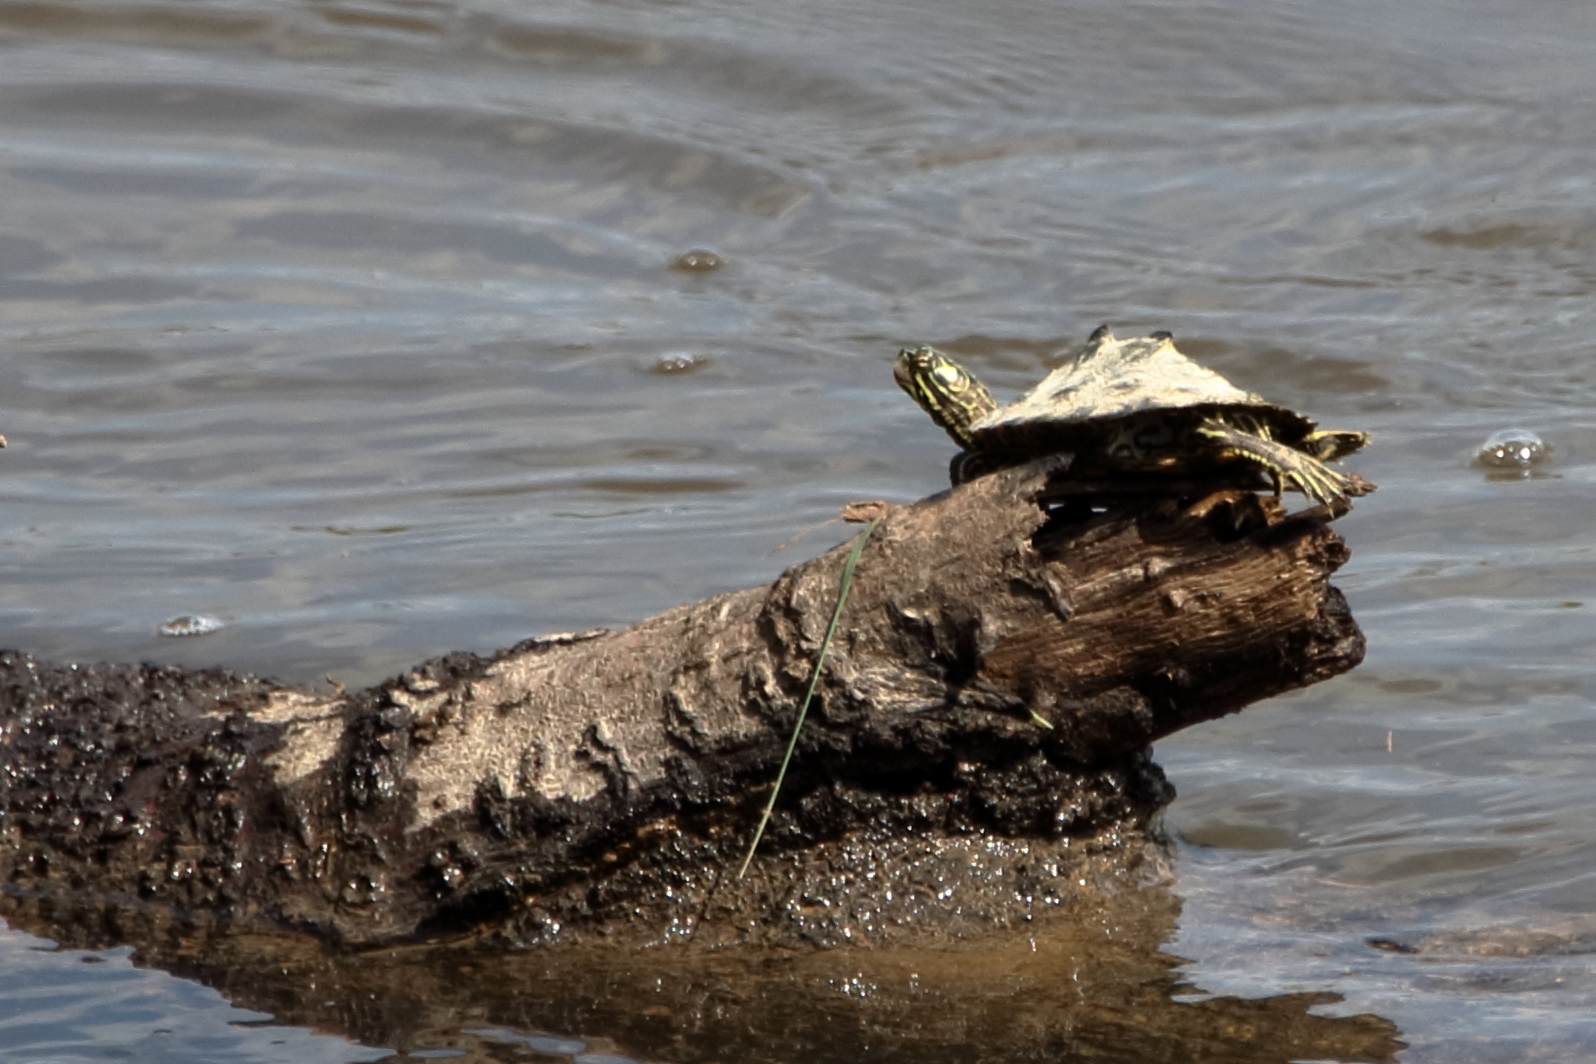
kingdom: Animalia
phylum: Chordata
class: Testudines
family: Emydidae
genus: Graptemys
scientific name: Graptemys oculifera
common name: Ringed map turtle
